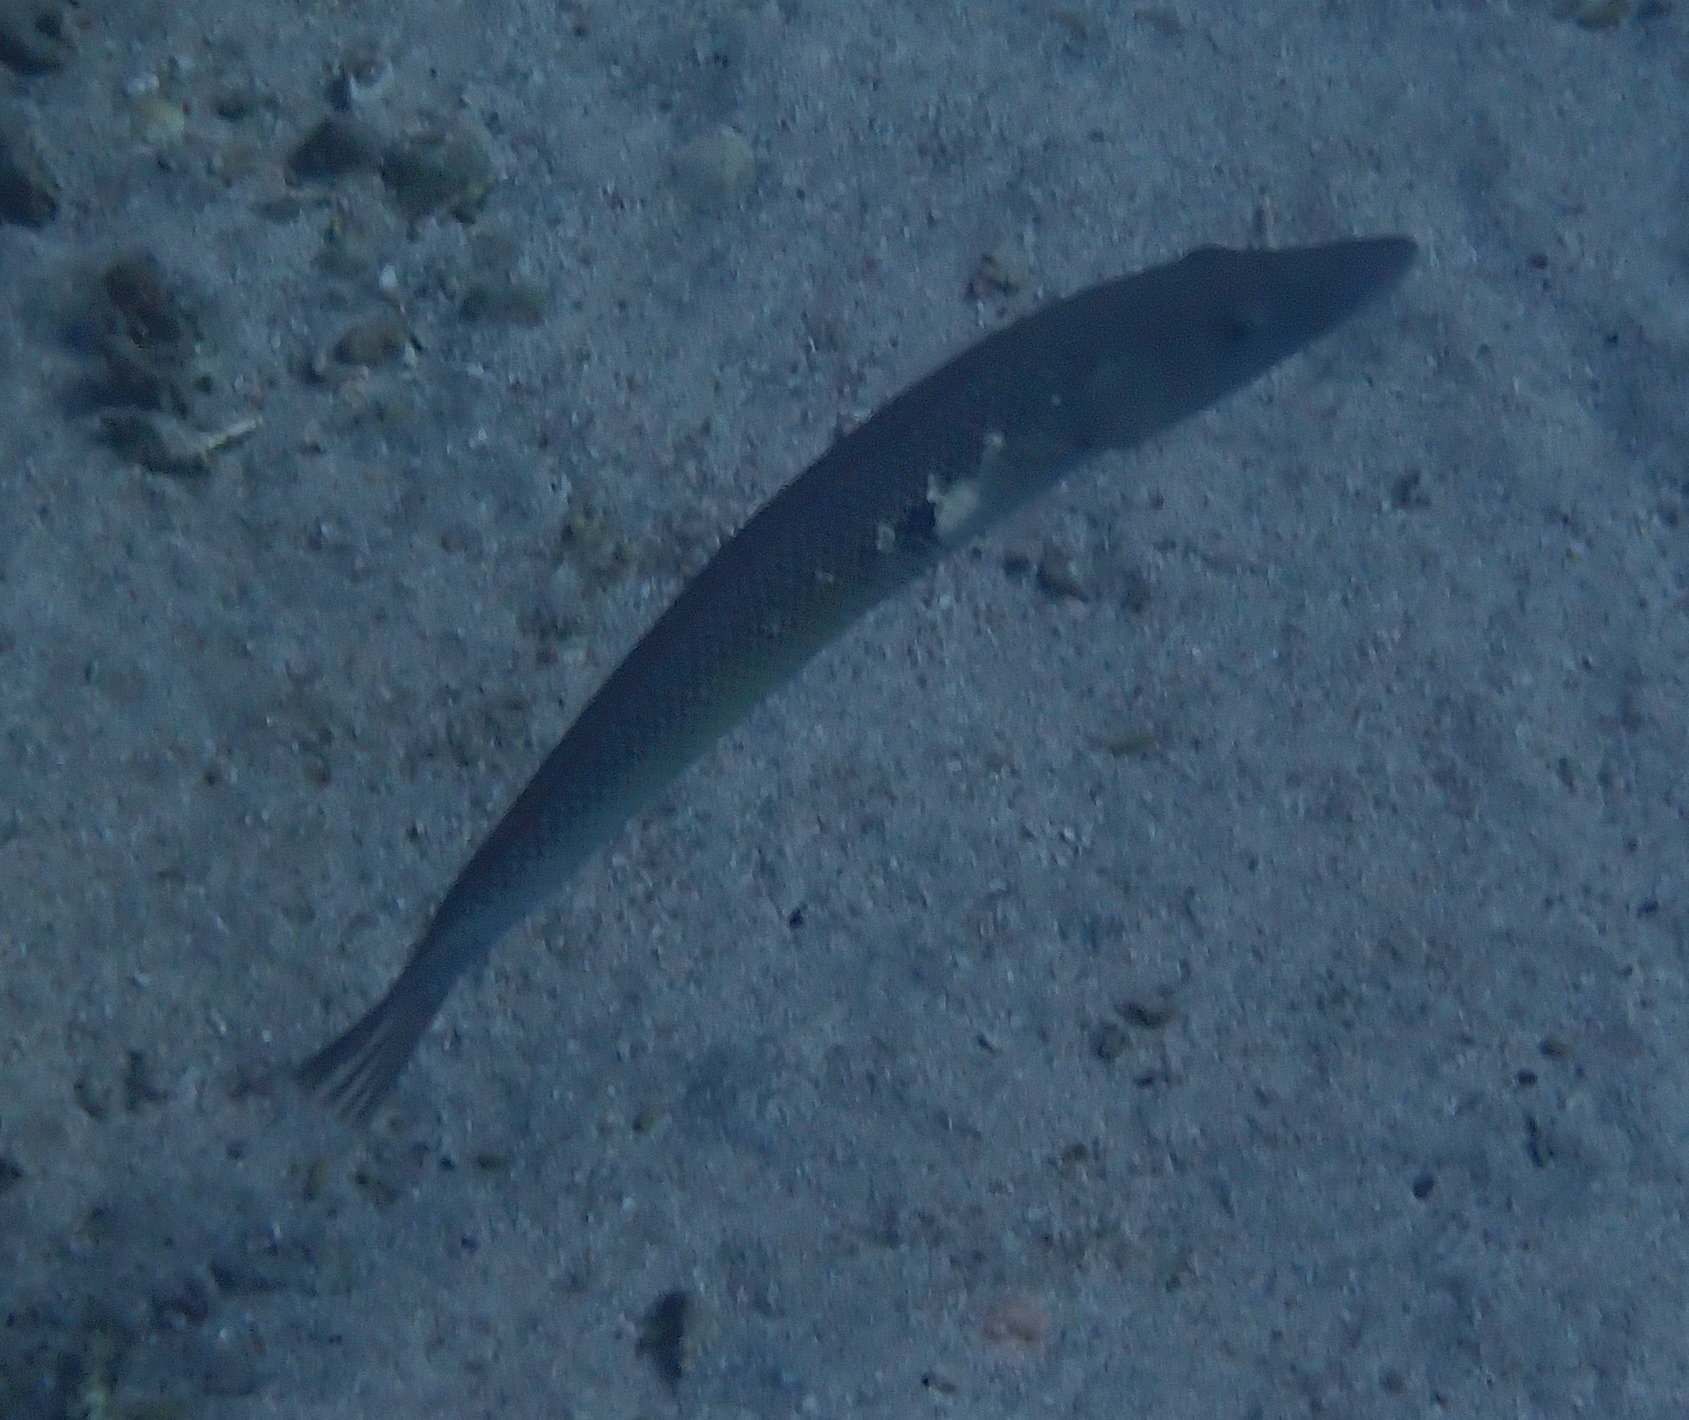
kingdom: Animalia
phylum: Chordata
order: Perciformes
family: Labridae
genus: Cheilio
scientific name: Cheilio inermis
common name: Cigar wrasse
